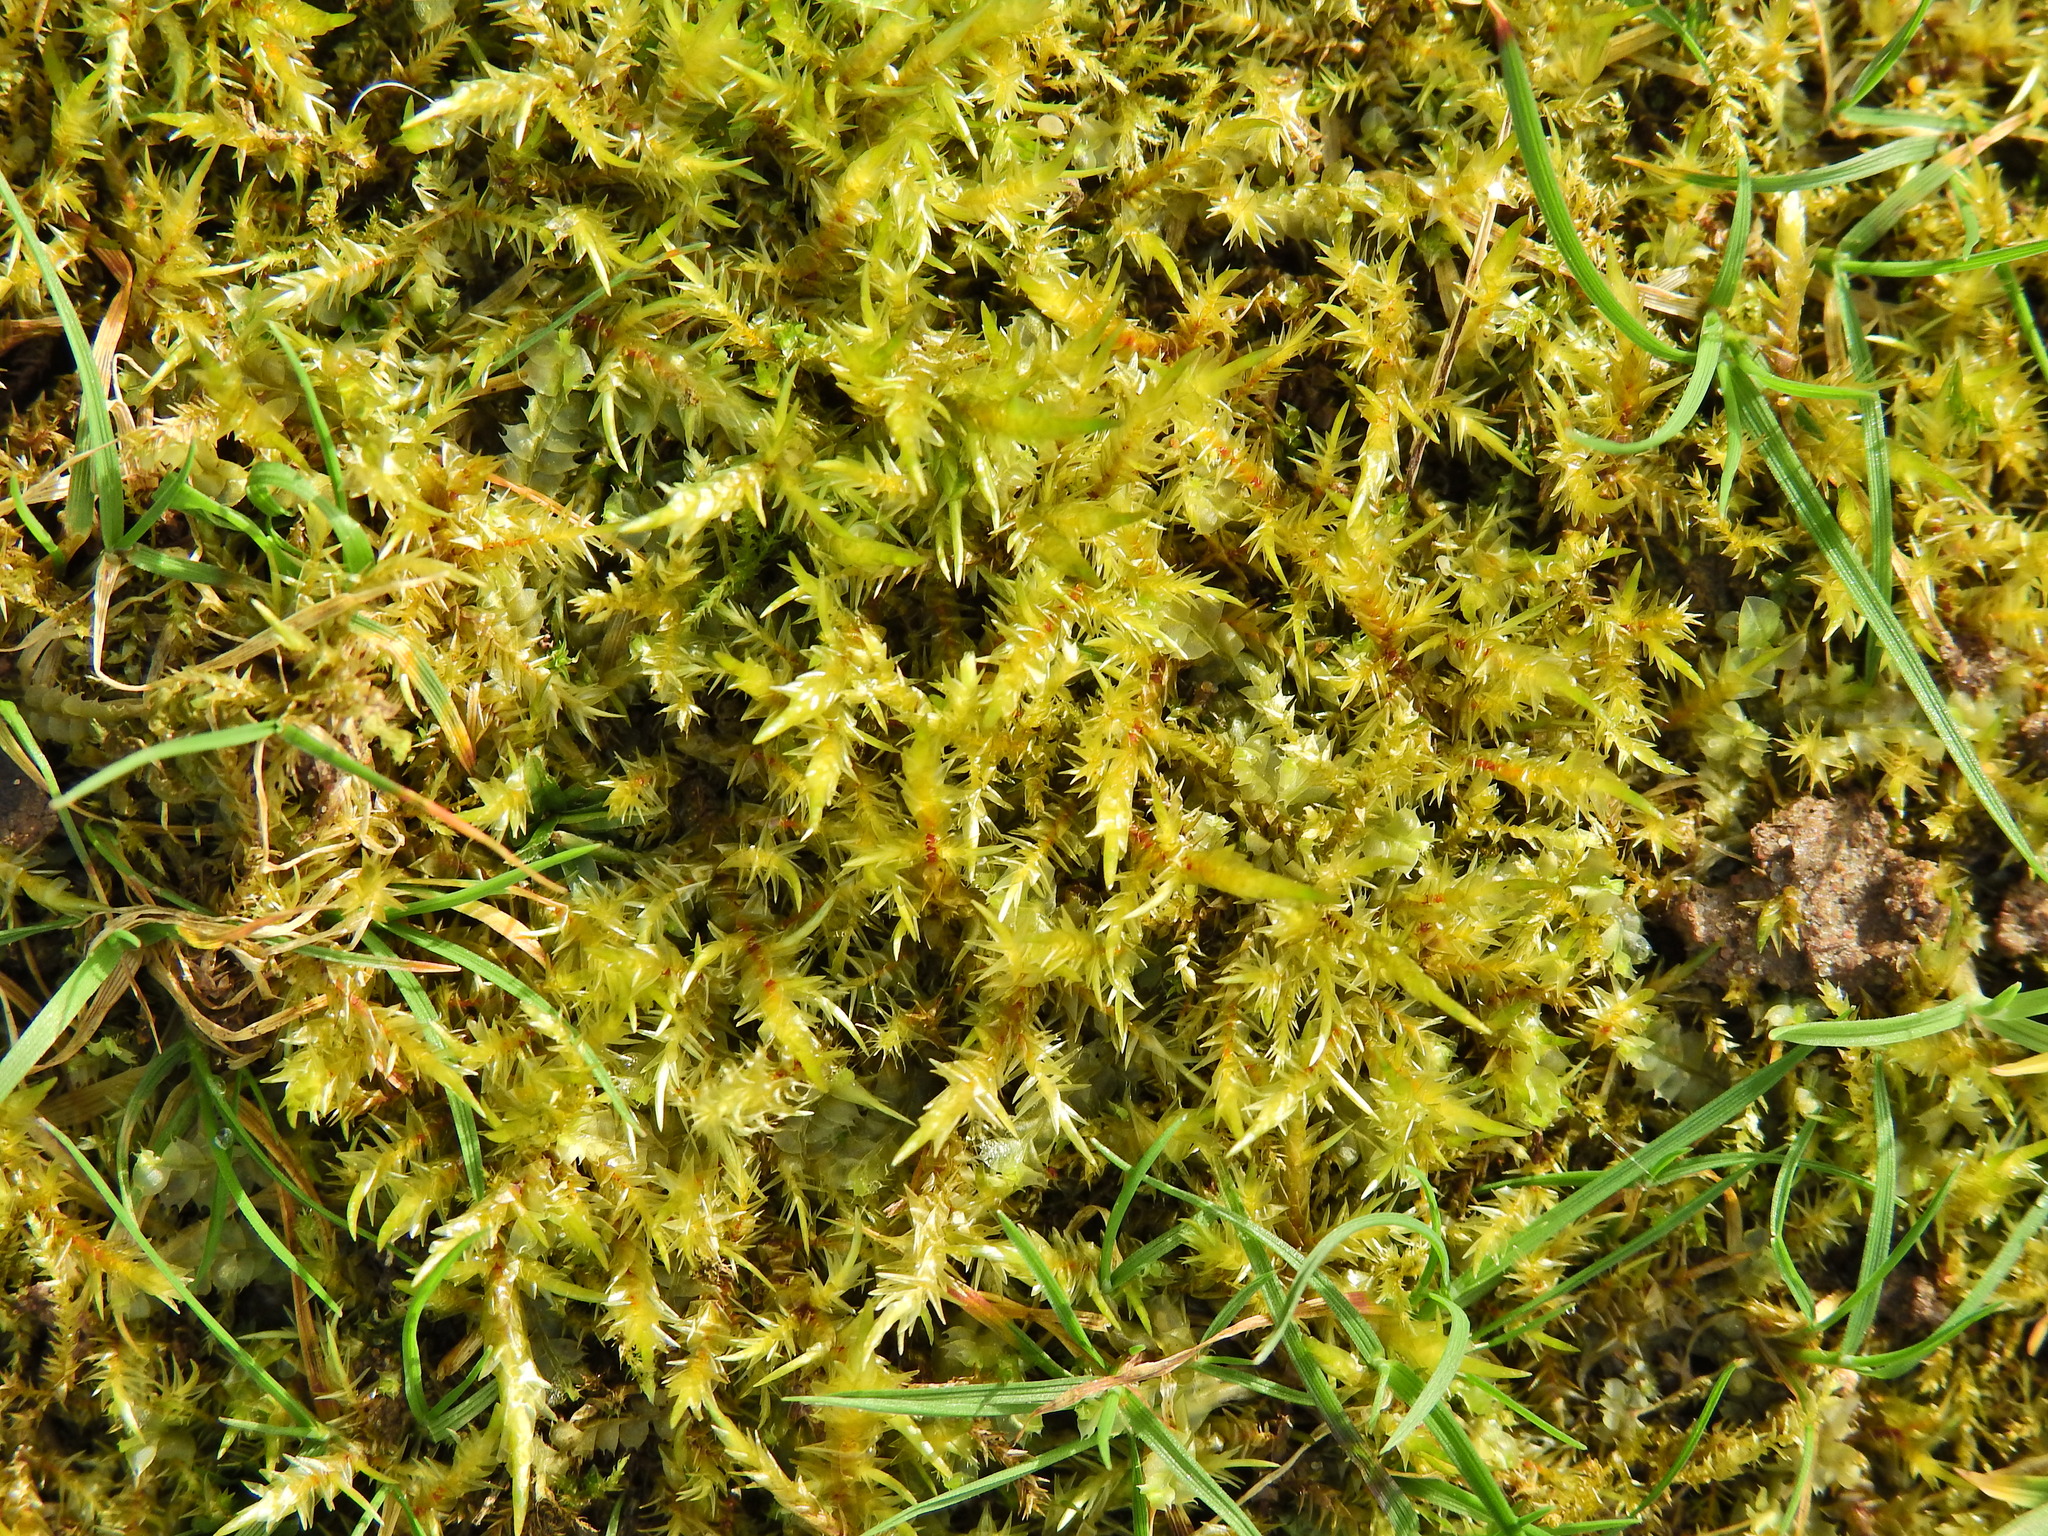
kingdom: Plantae
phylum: Bryophyta
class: Bryopsida
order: Hypnales
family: Pylaisiaceae
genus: Calliergonella
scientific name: Calliergonella cuspidata
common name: Common large wetland moss
